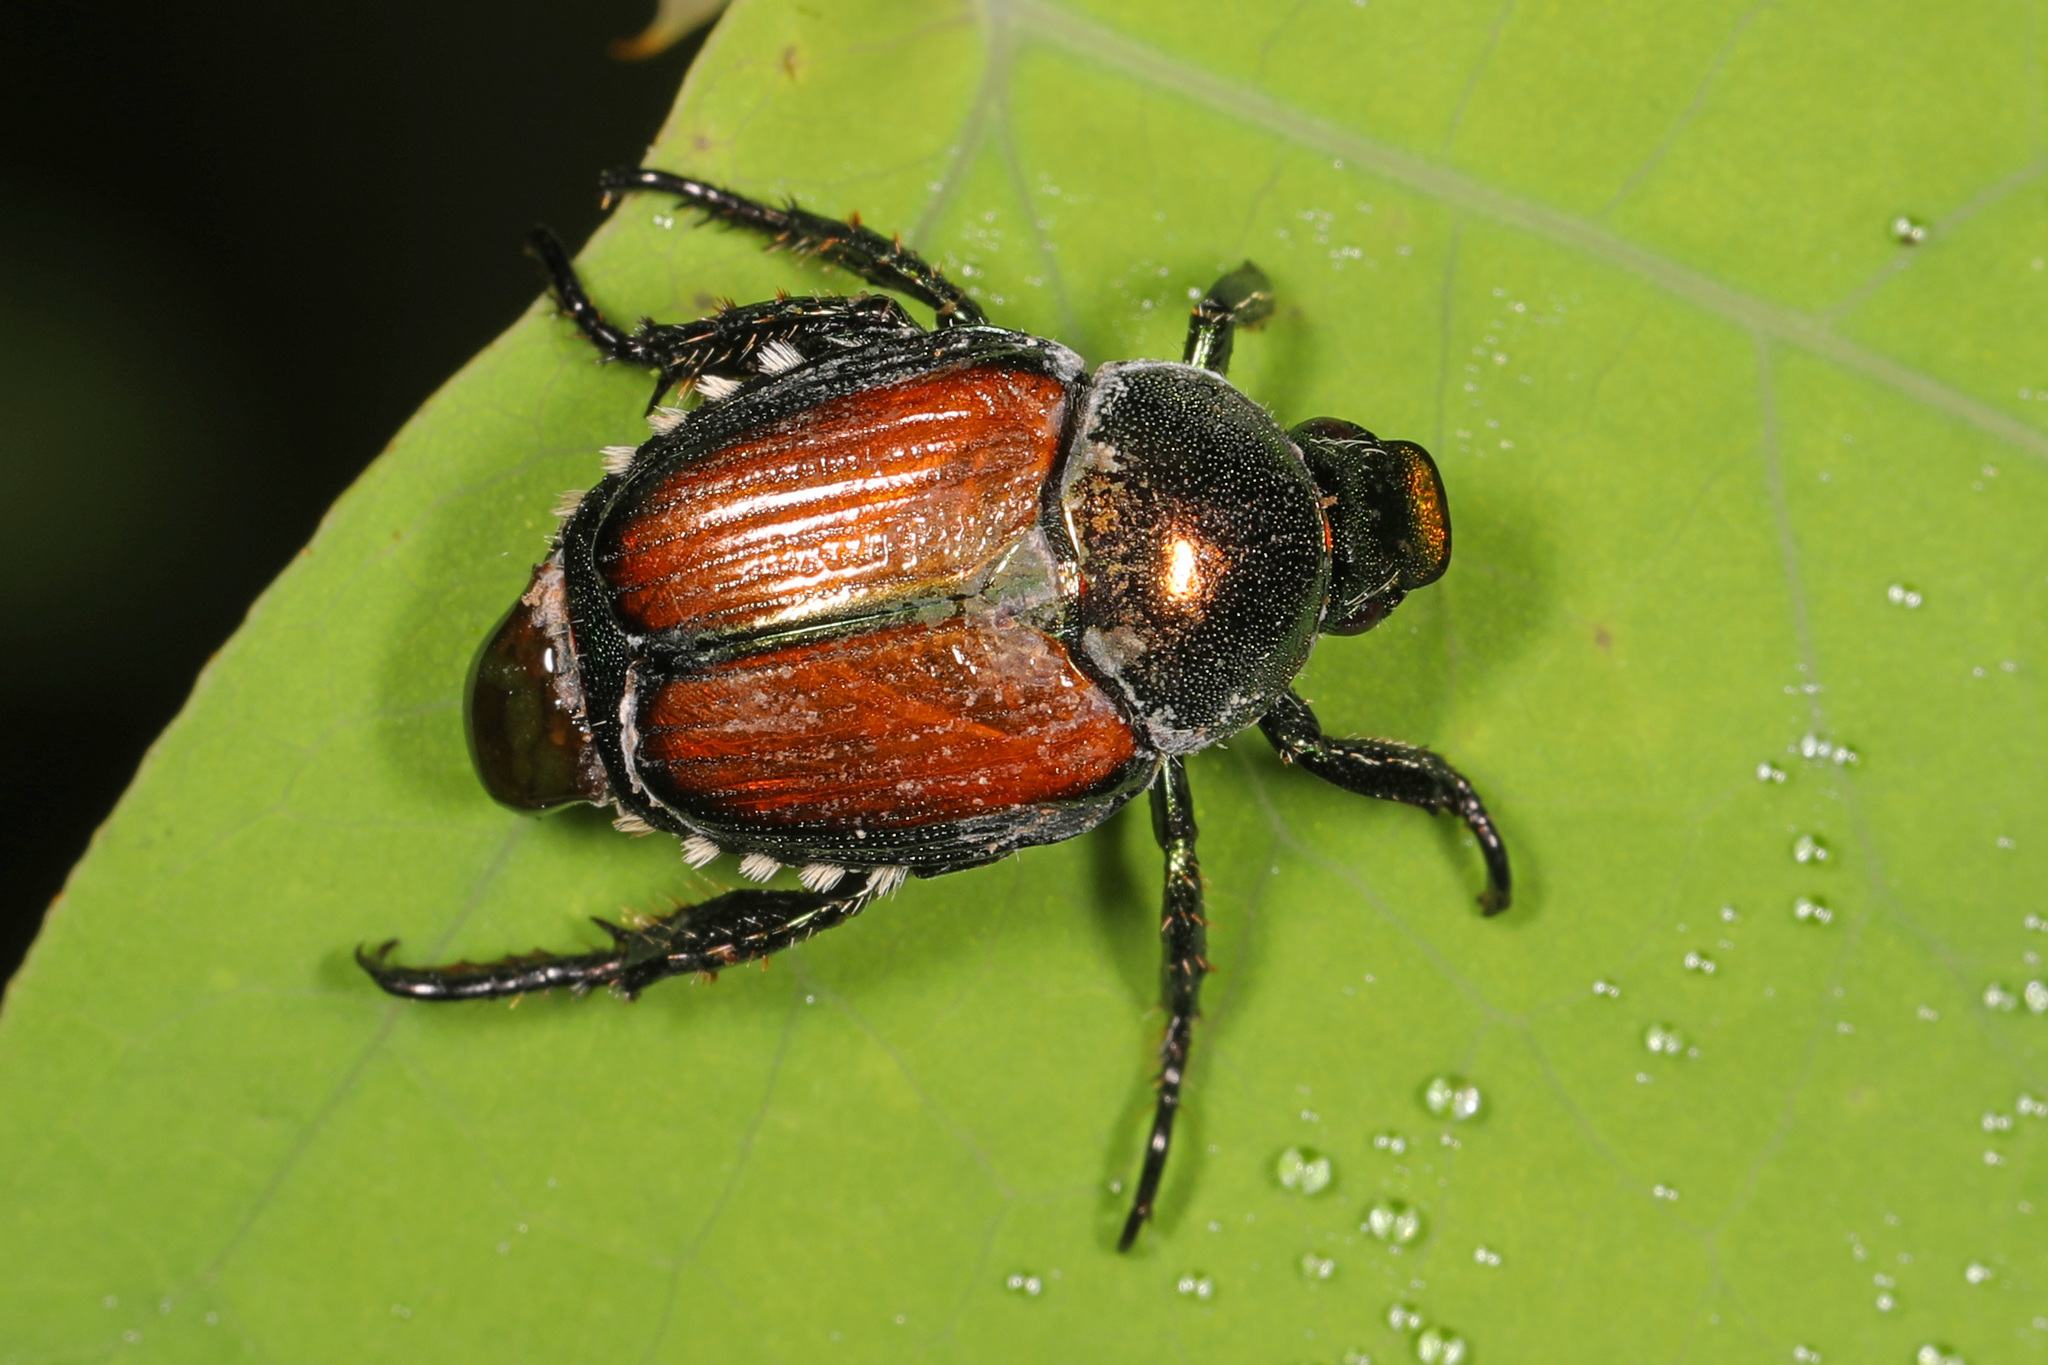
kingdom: Animalia
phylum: Arthropoda
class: Insecta
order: Coleoptera
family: Scarabaeidae
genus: Popillia
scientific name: Popillia japonica
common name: Japanese beetle
